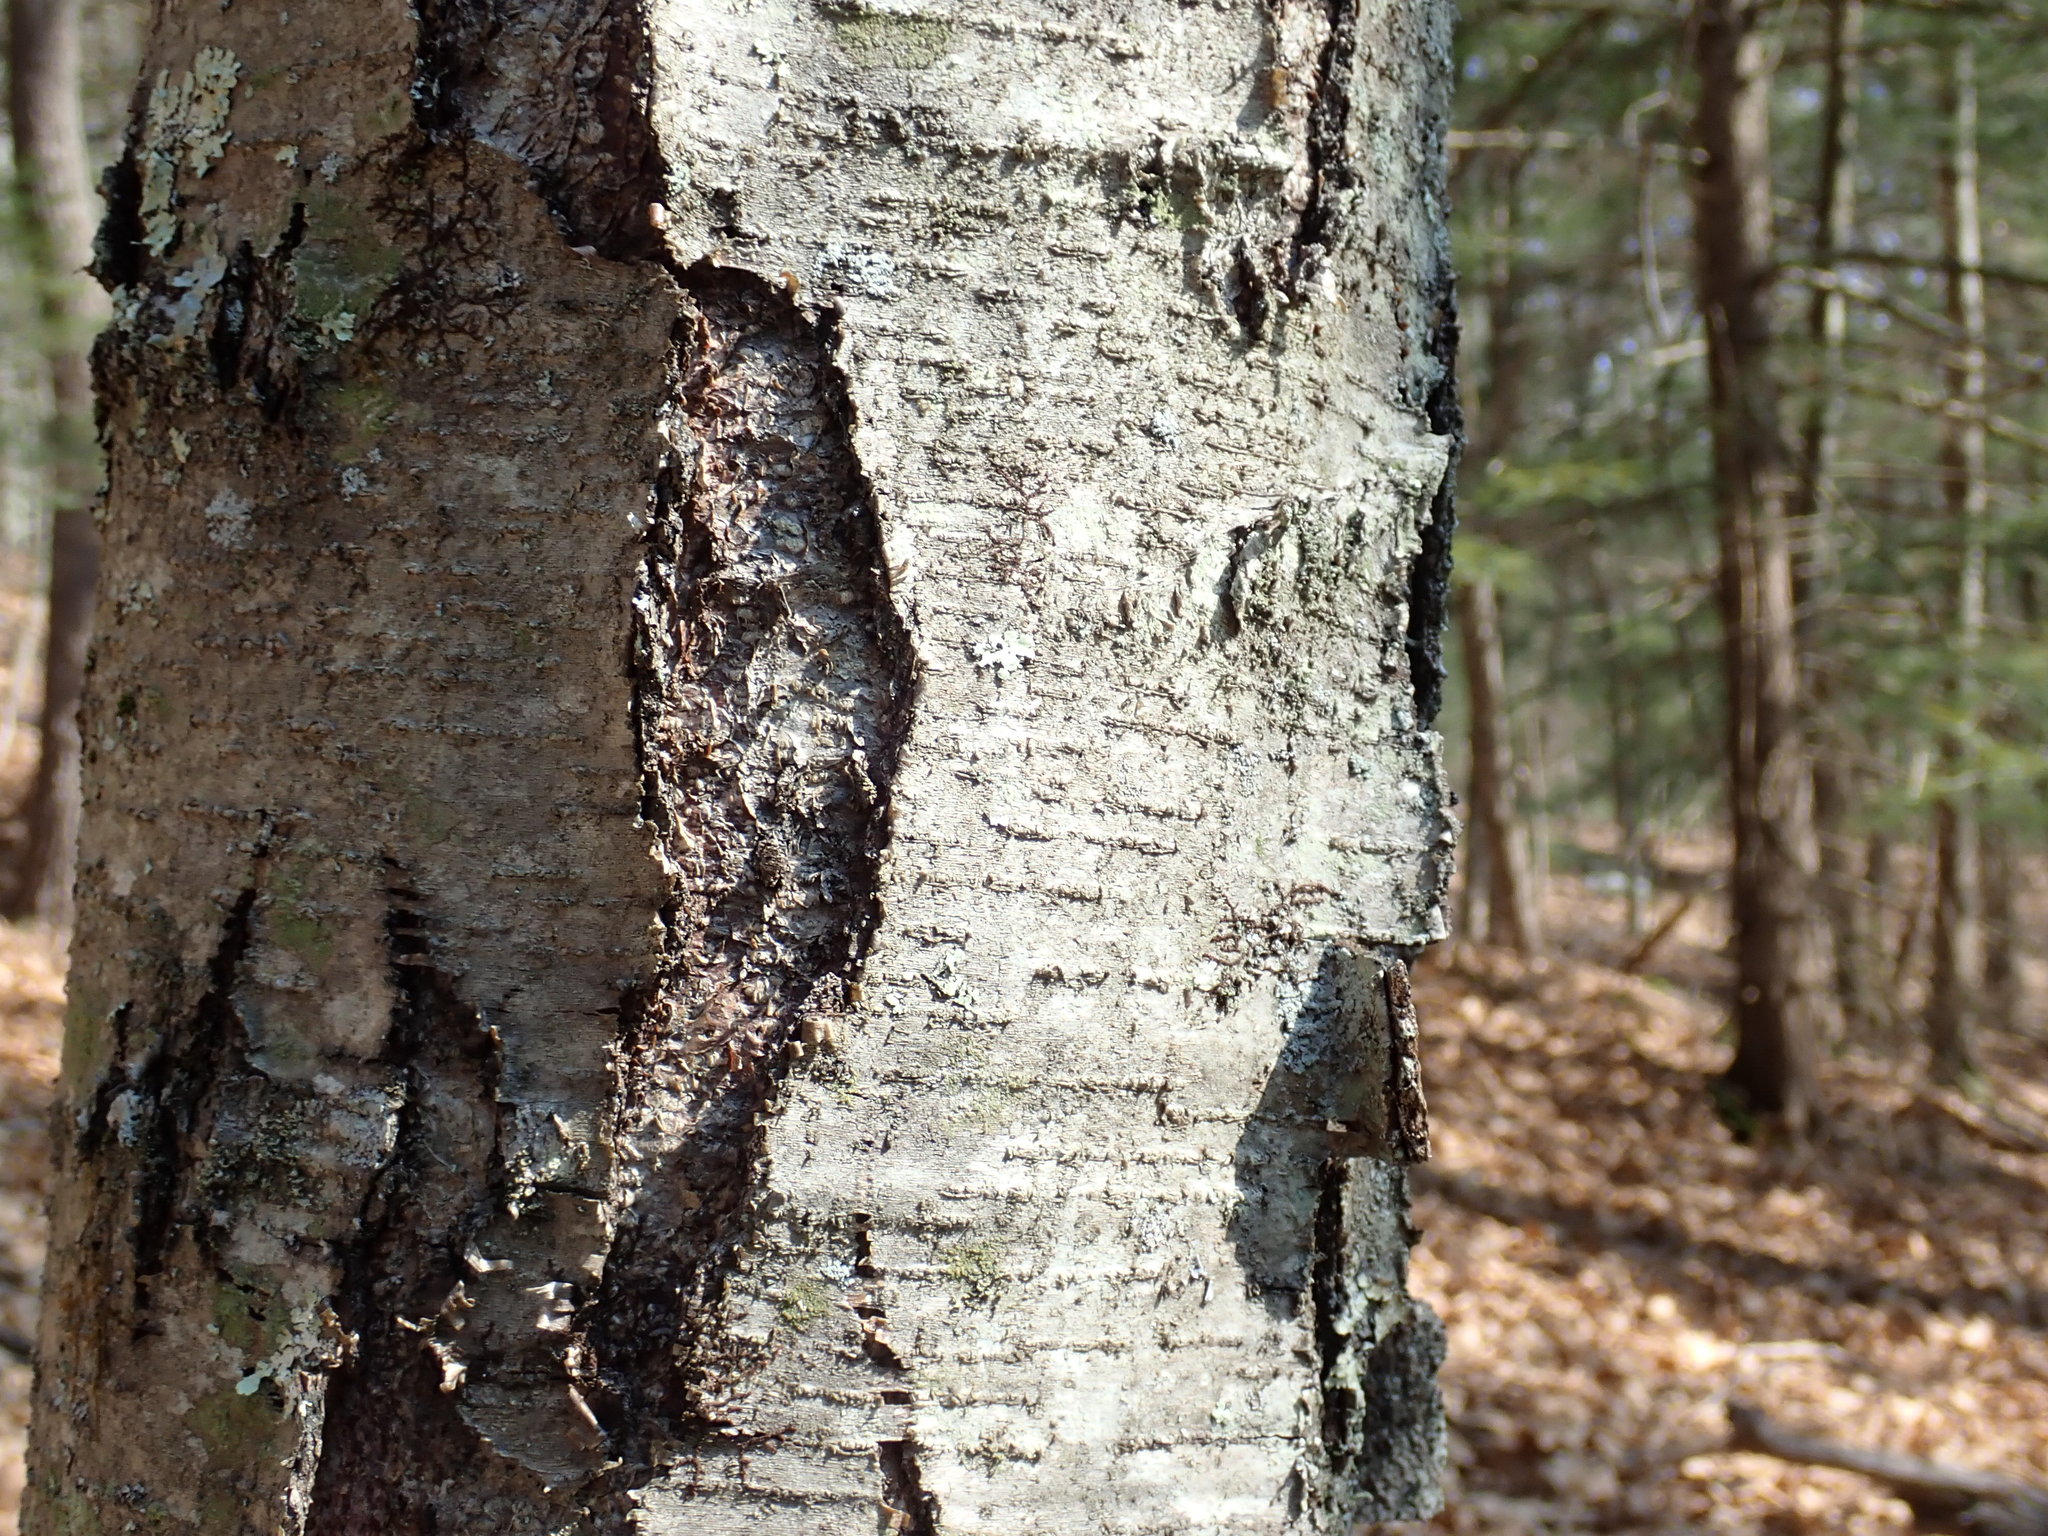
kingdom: Plantae
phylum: Tracheophyta
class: Magnoliopsida
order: Fagales
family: Betulaceae
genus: Betula
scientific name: Betula lenta
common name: Black birch
